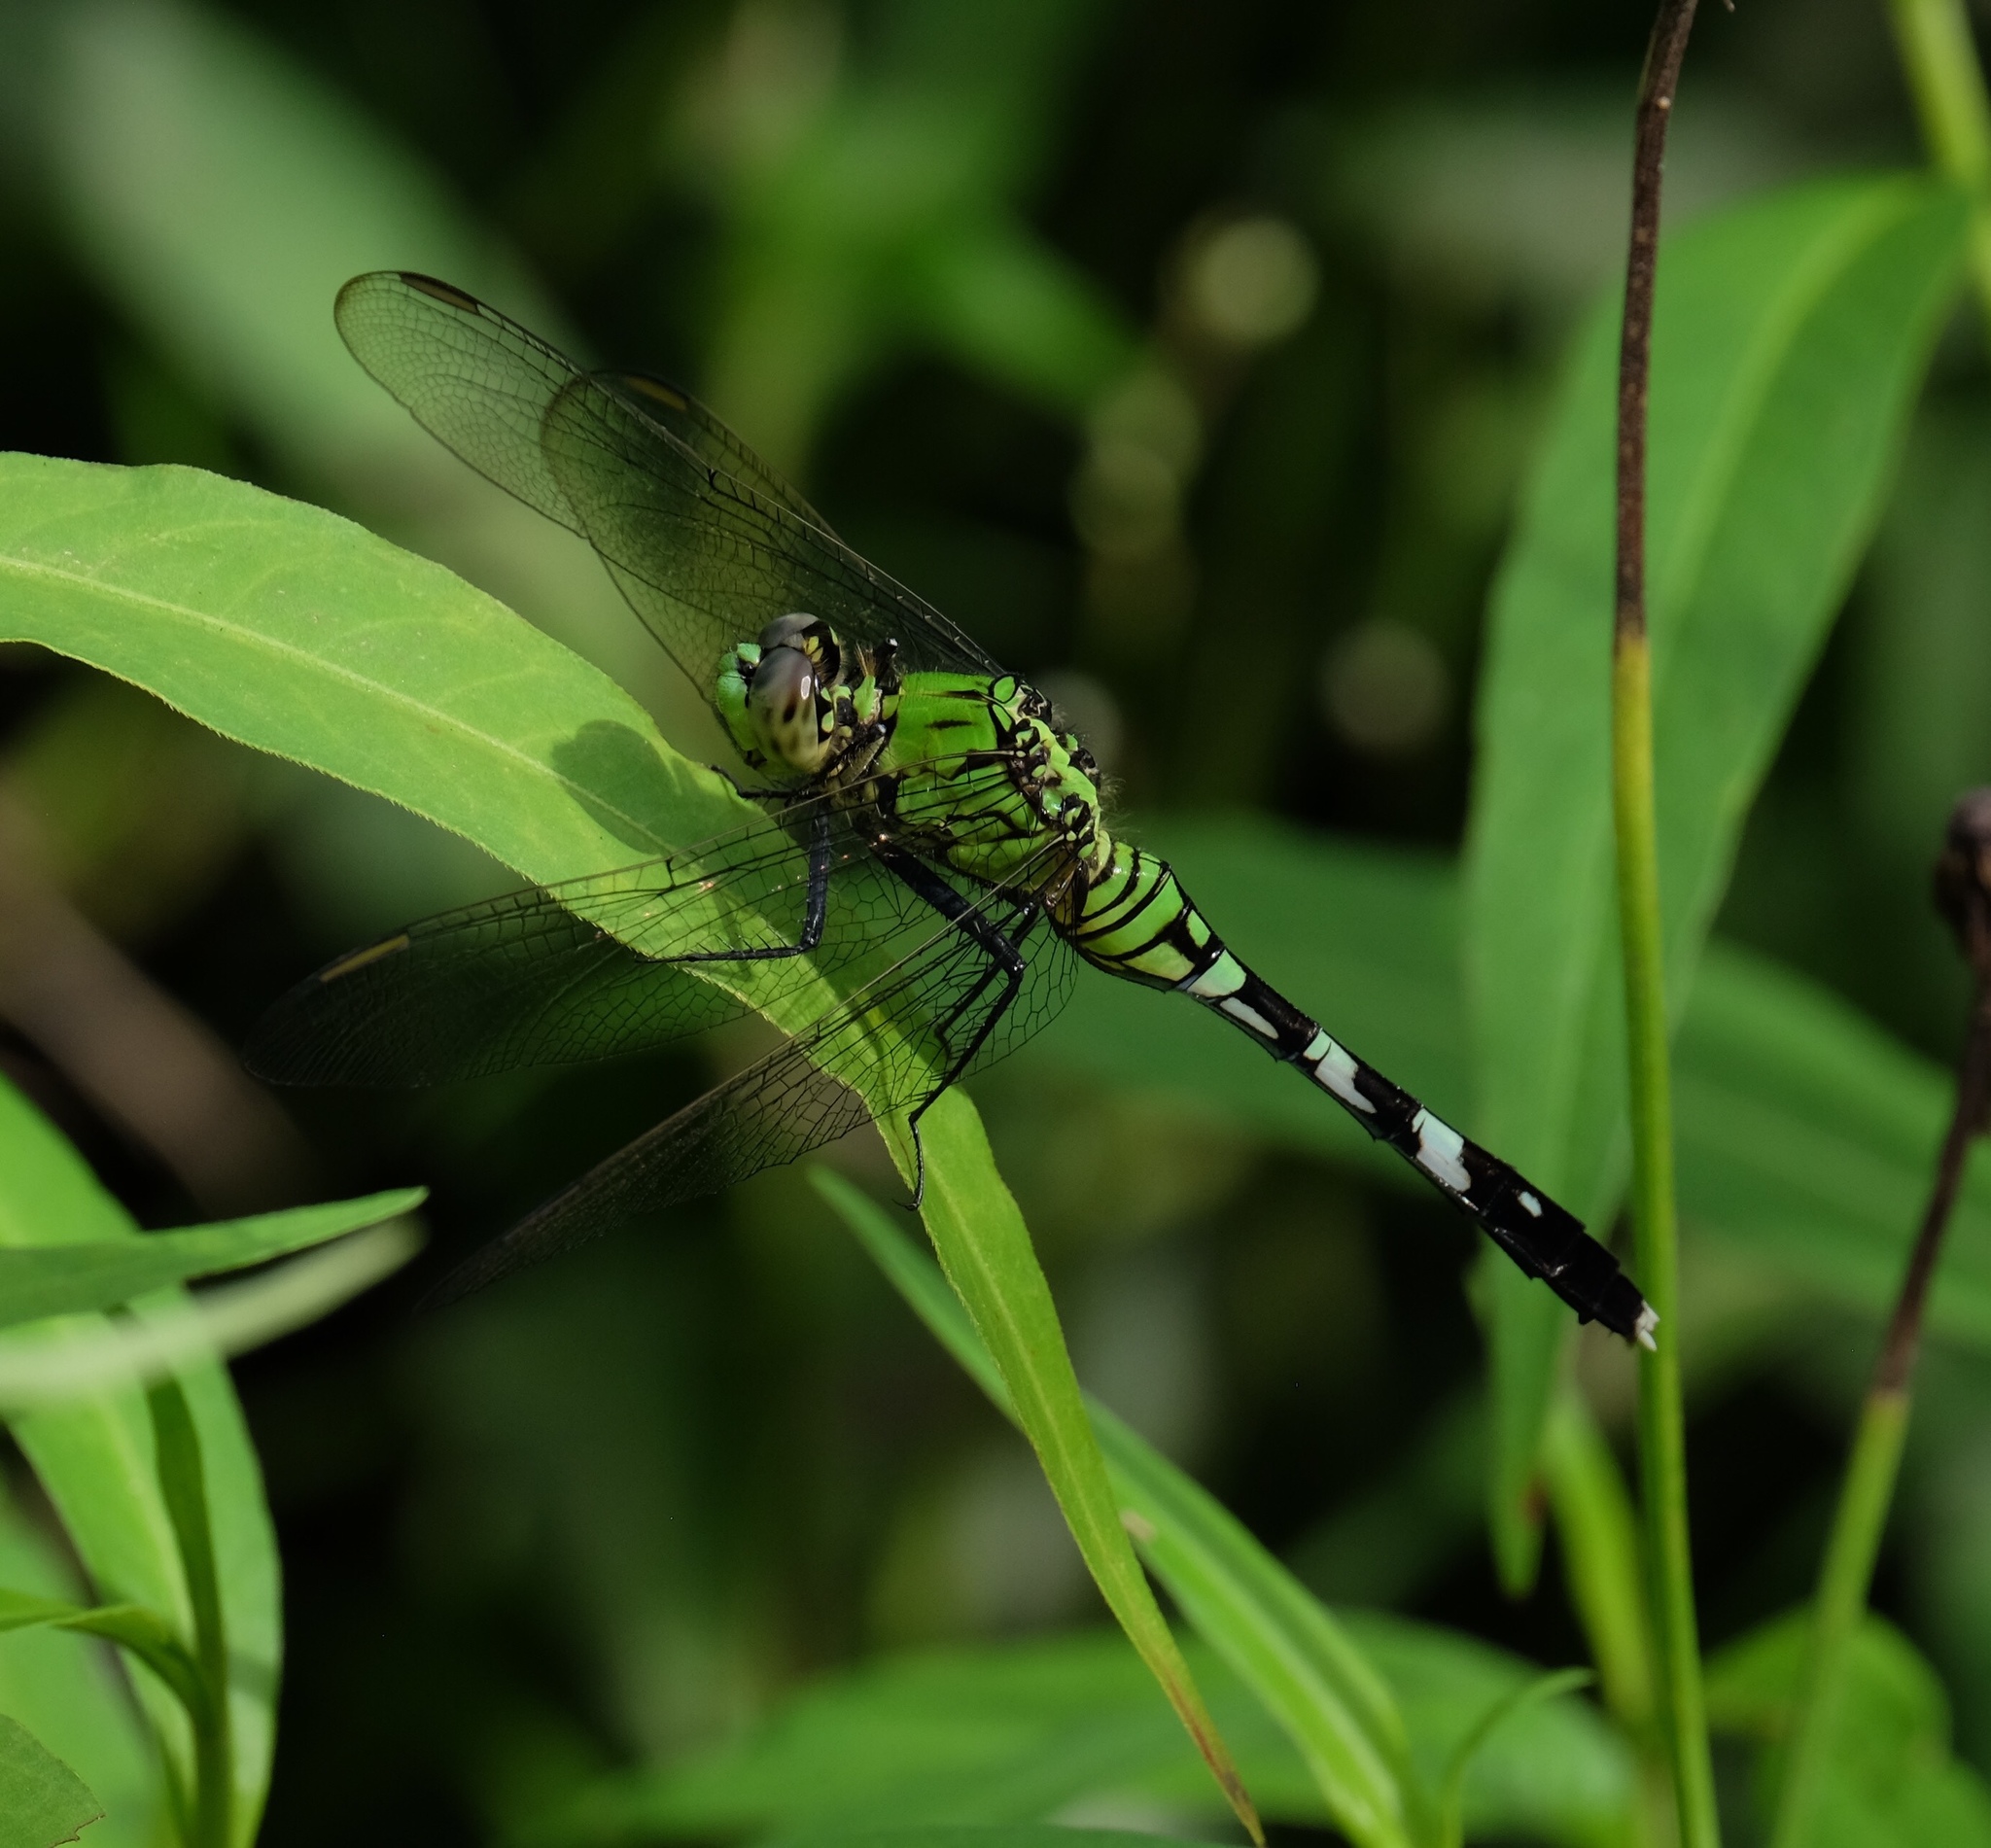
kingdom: Animalia
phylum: Arthropoda
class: Insecta
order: Odonata
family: Libellulidae
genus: Erythemis
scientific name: Erythemis simplicicollis
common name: Eastern pondhawk
